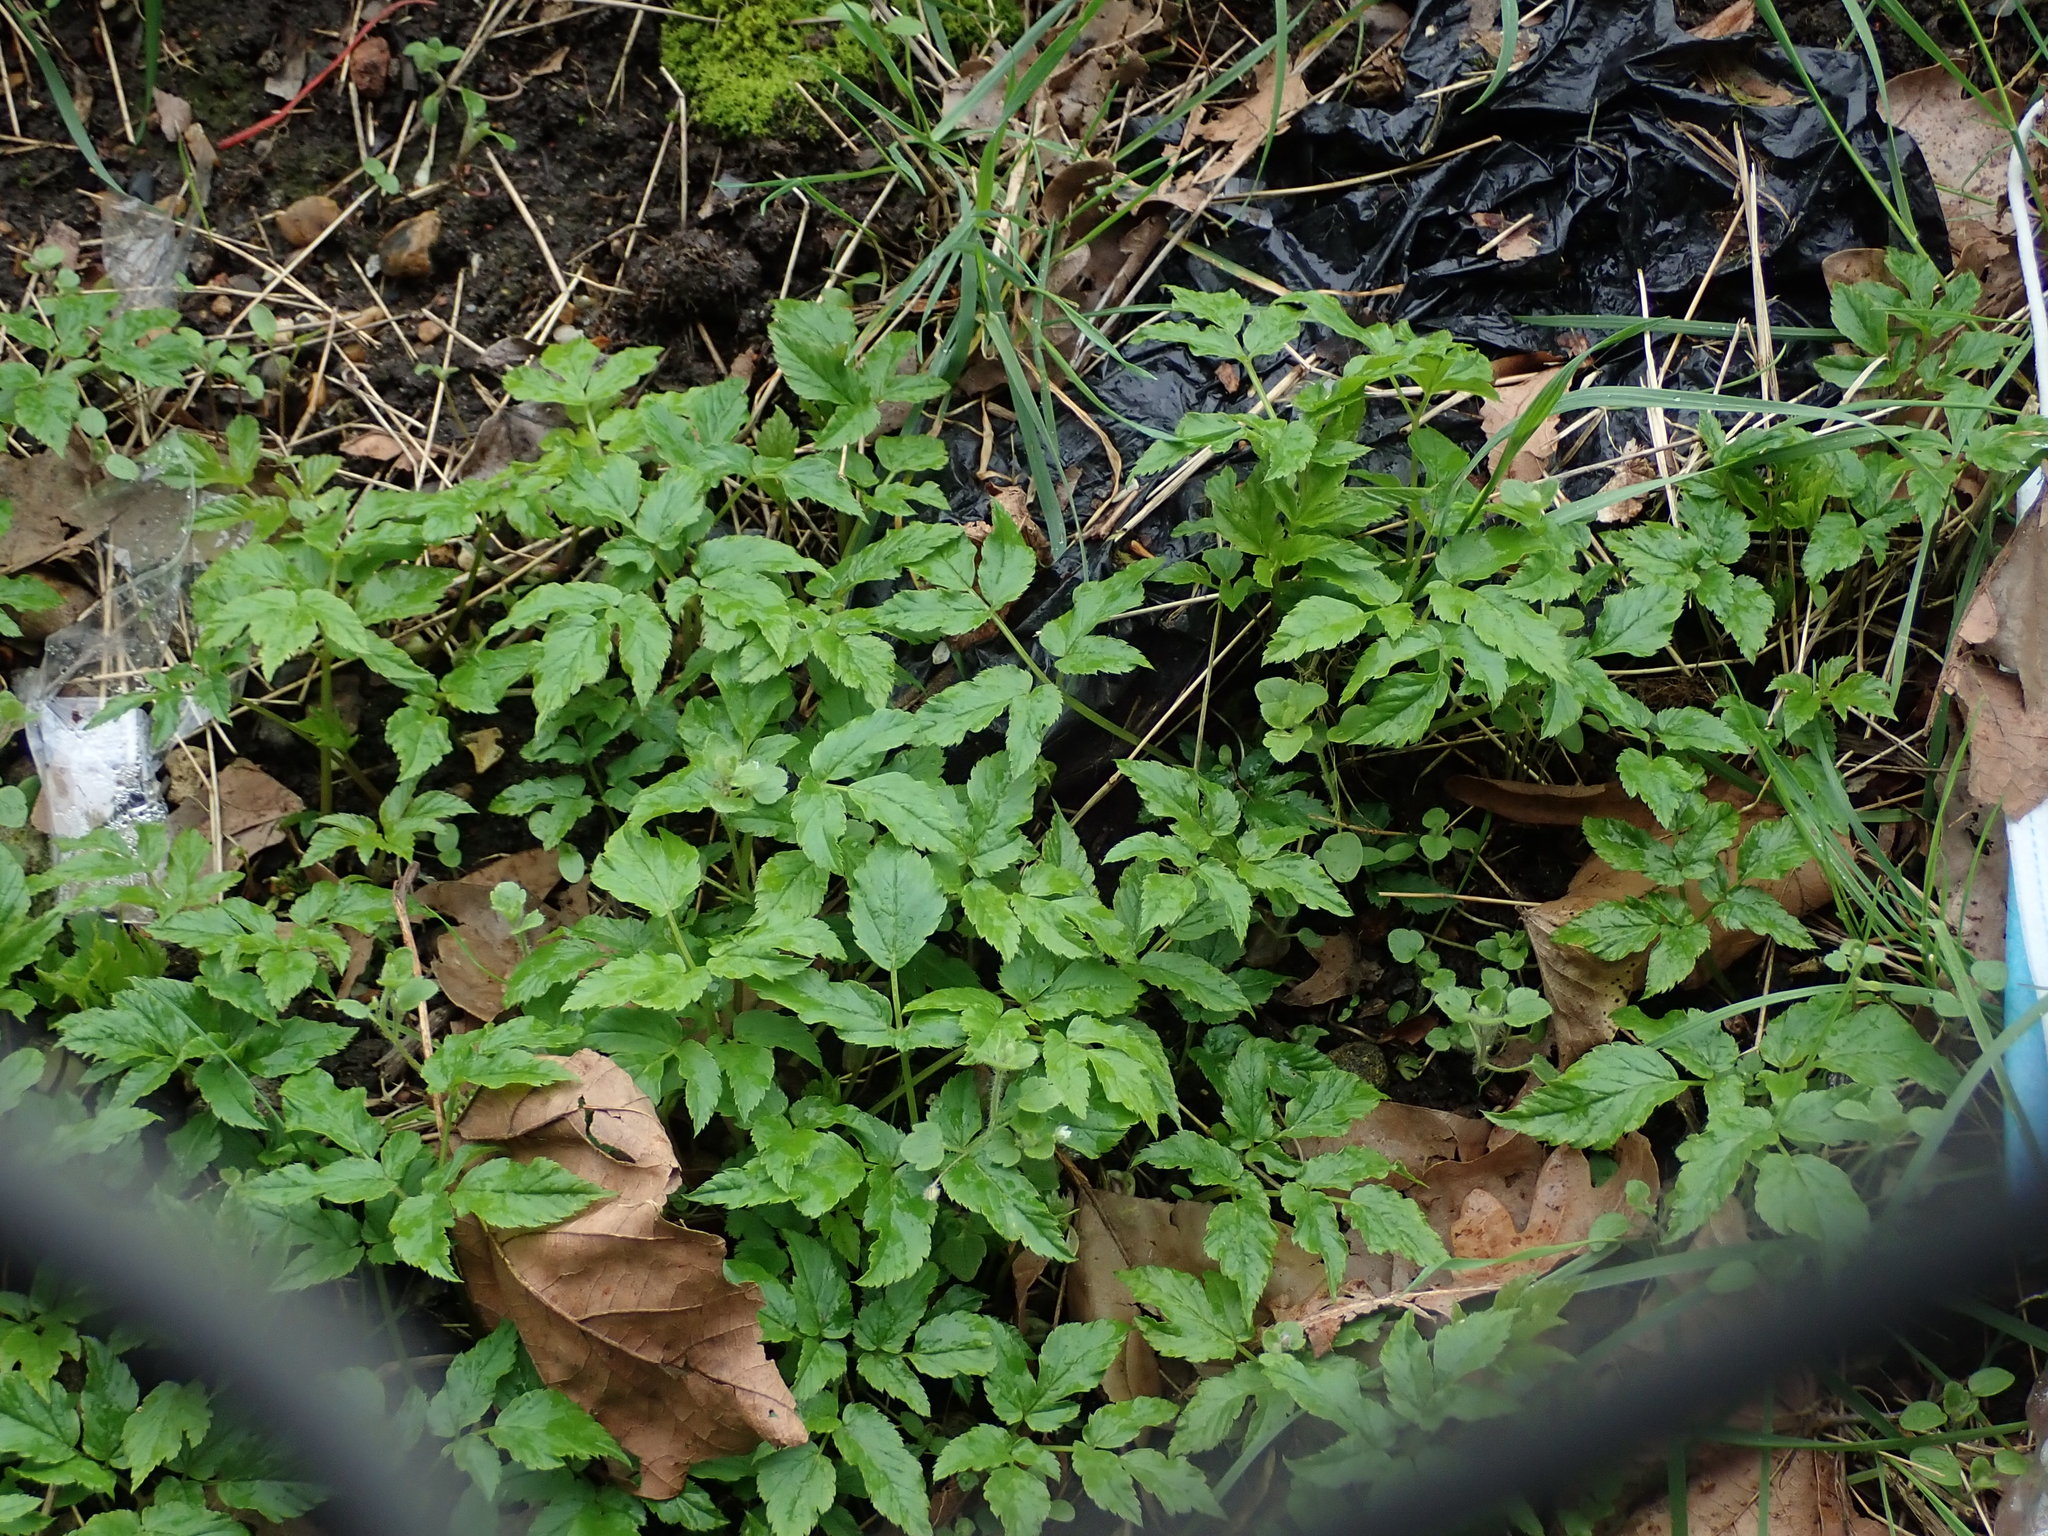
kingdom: Plantae
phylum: Tracheophyta
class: Magnoliopsida
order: Apiales
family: Apiaceae
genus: Aegopodium
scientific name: Aegopodium podagraria
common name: Ground-elder
